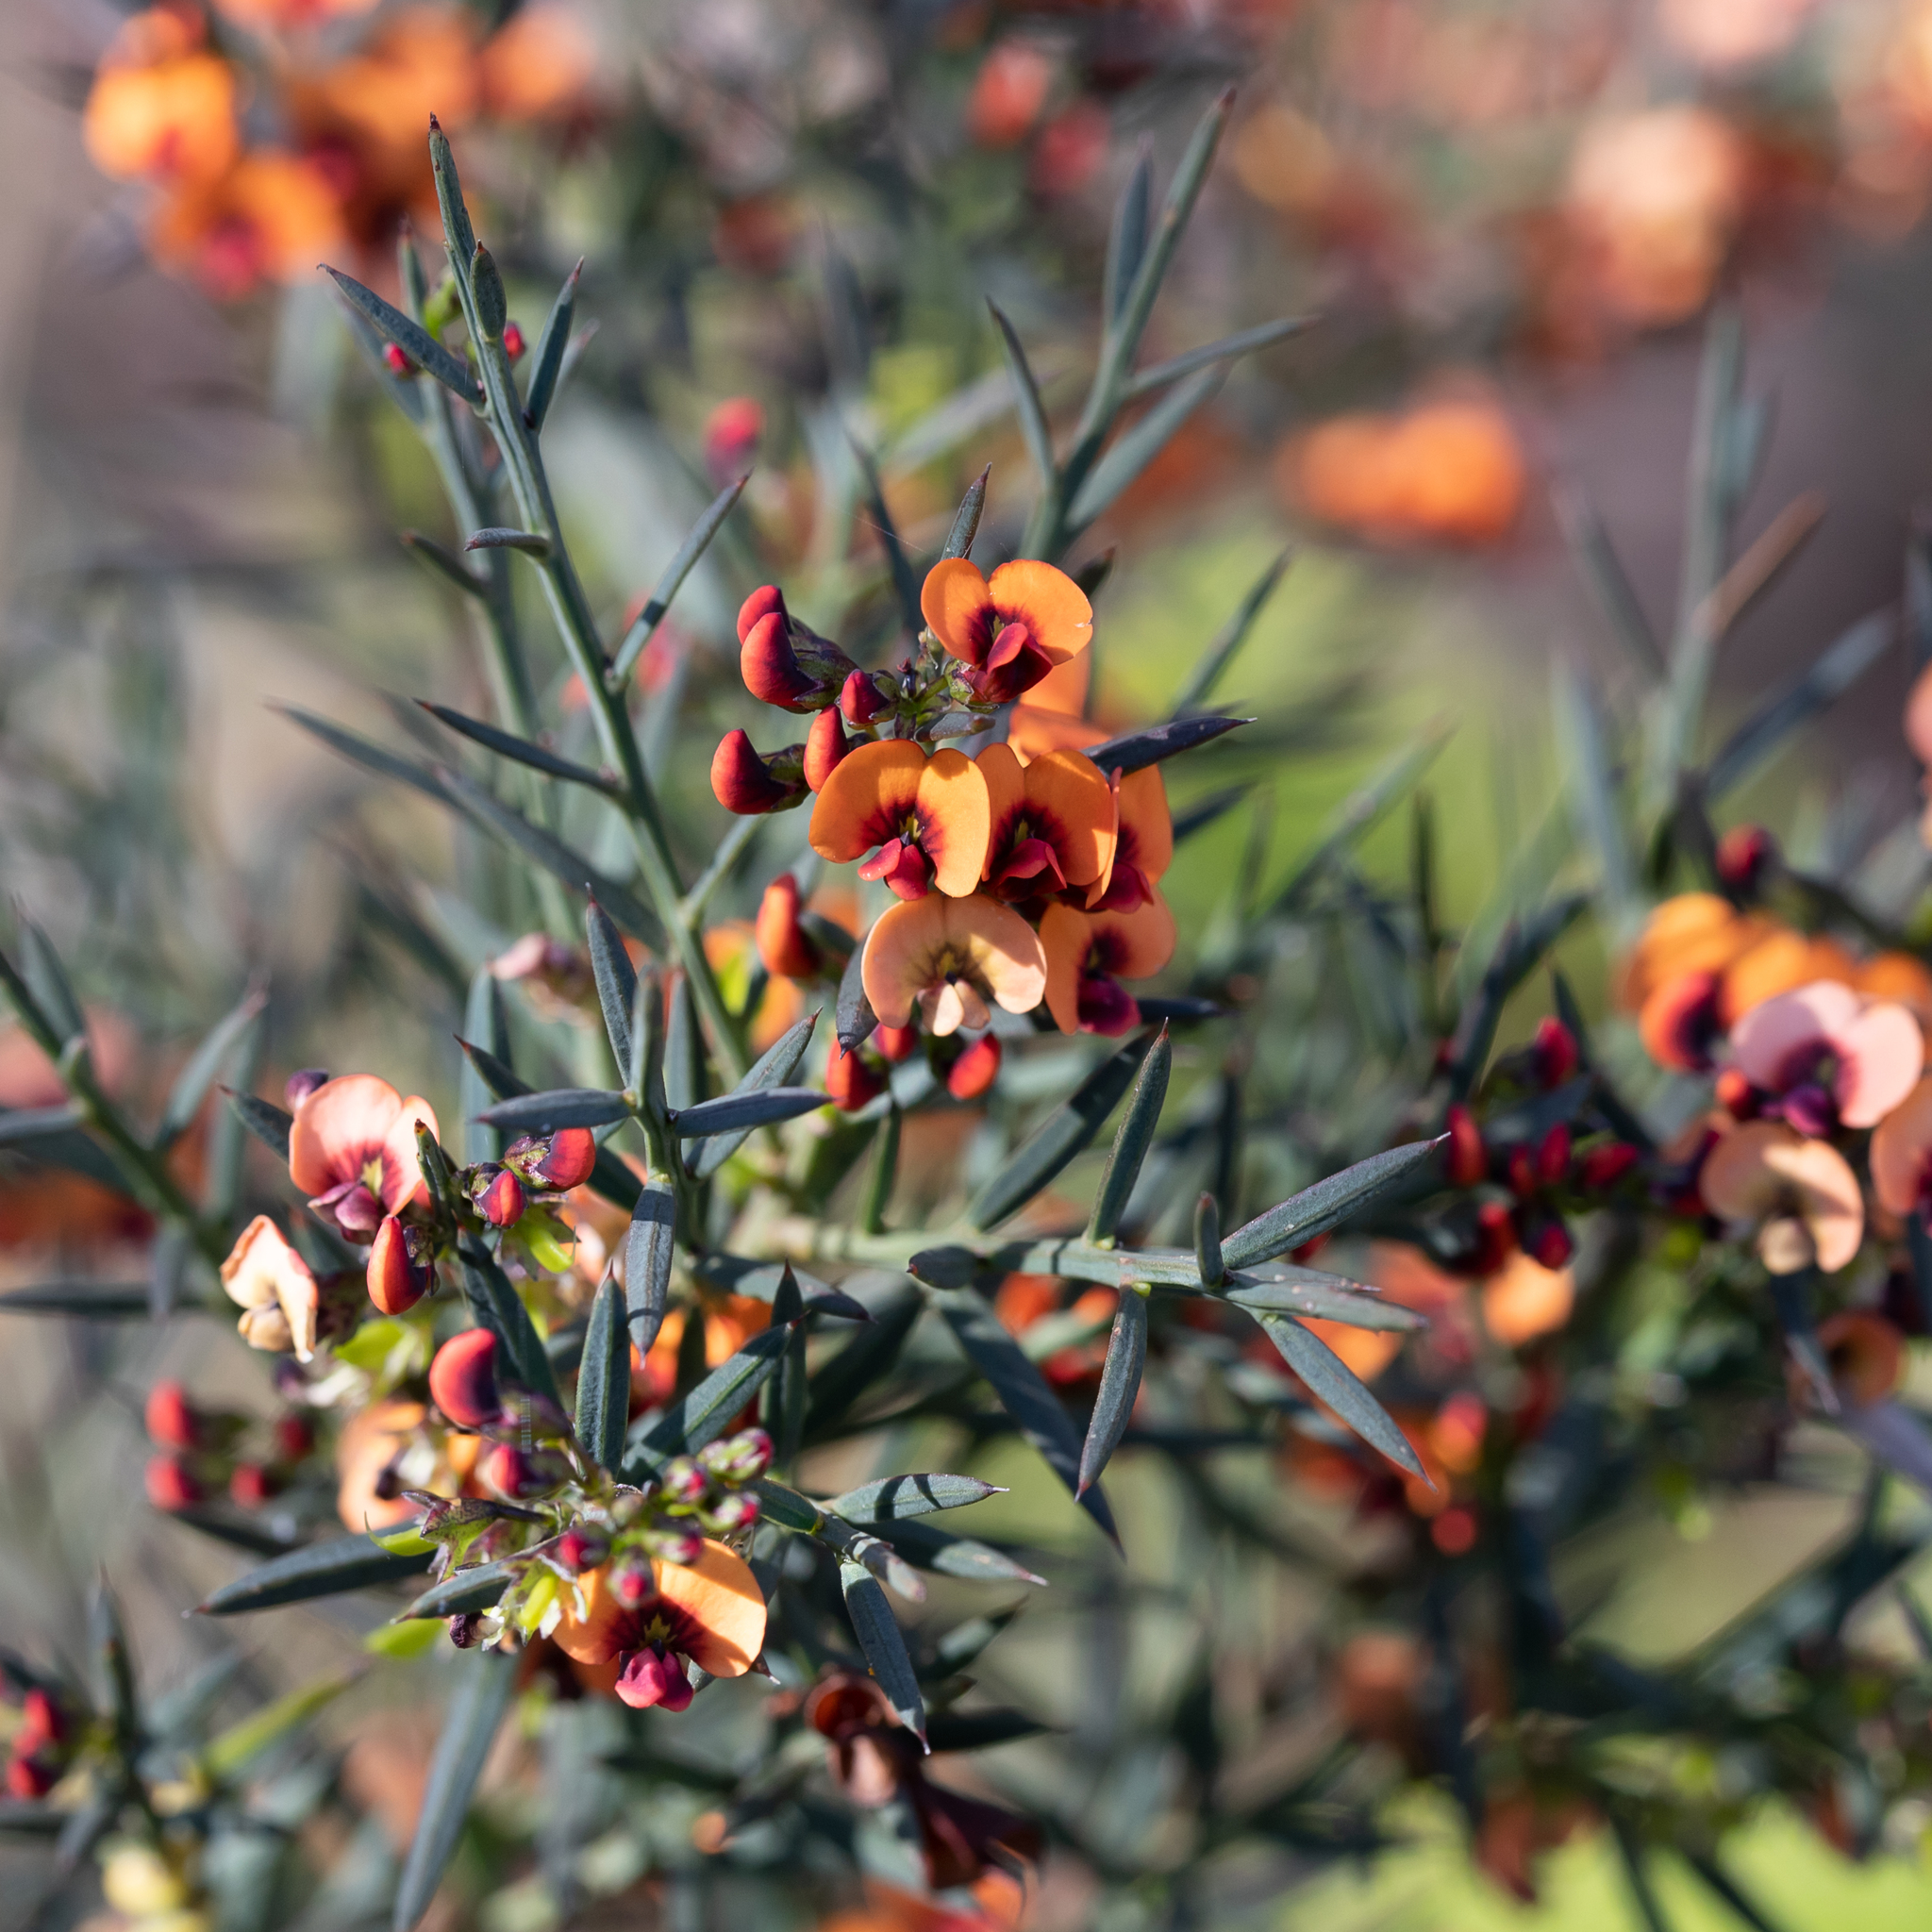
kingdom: Plantae
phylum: Tracheophyta
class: Magnoliopsida
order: Fabales
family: Fabaceae
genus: Daviesia
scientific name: Daviesia ulicifolia
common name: Gorse bitter-pea
